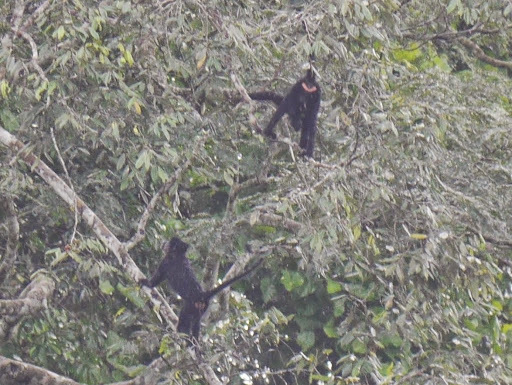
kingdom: Animalia
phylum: Chordata
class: Mammalia
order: Primates
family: Cercopithecidae
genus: Lophocebus
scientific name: Lophocebus aterrimus
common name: Black crested mangabey
